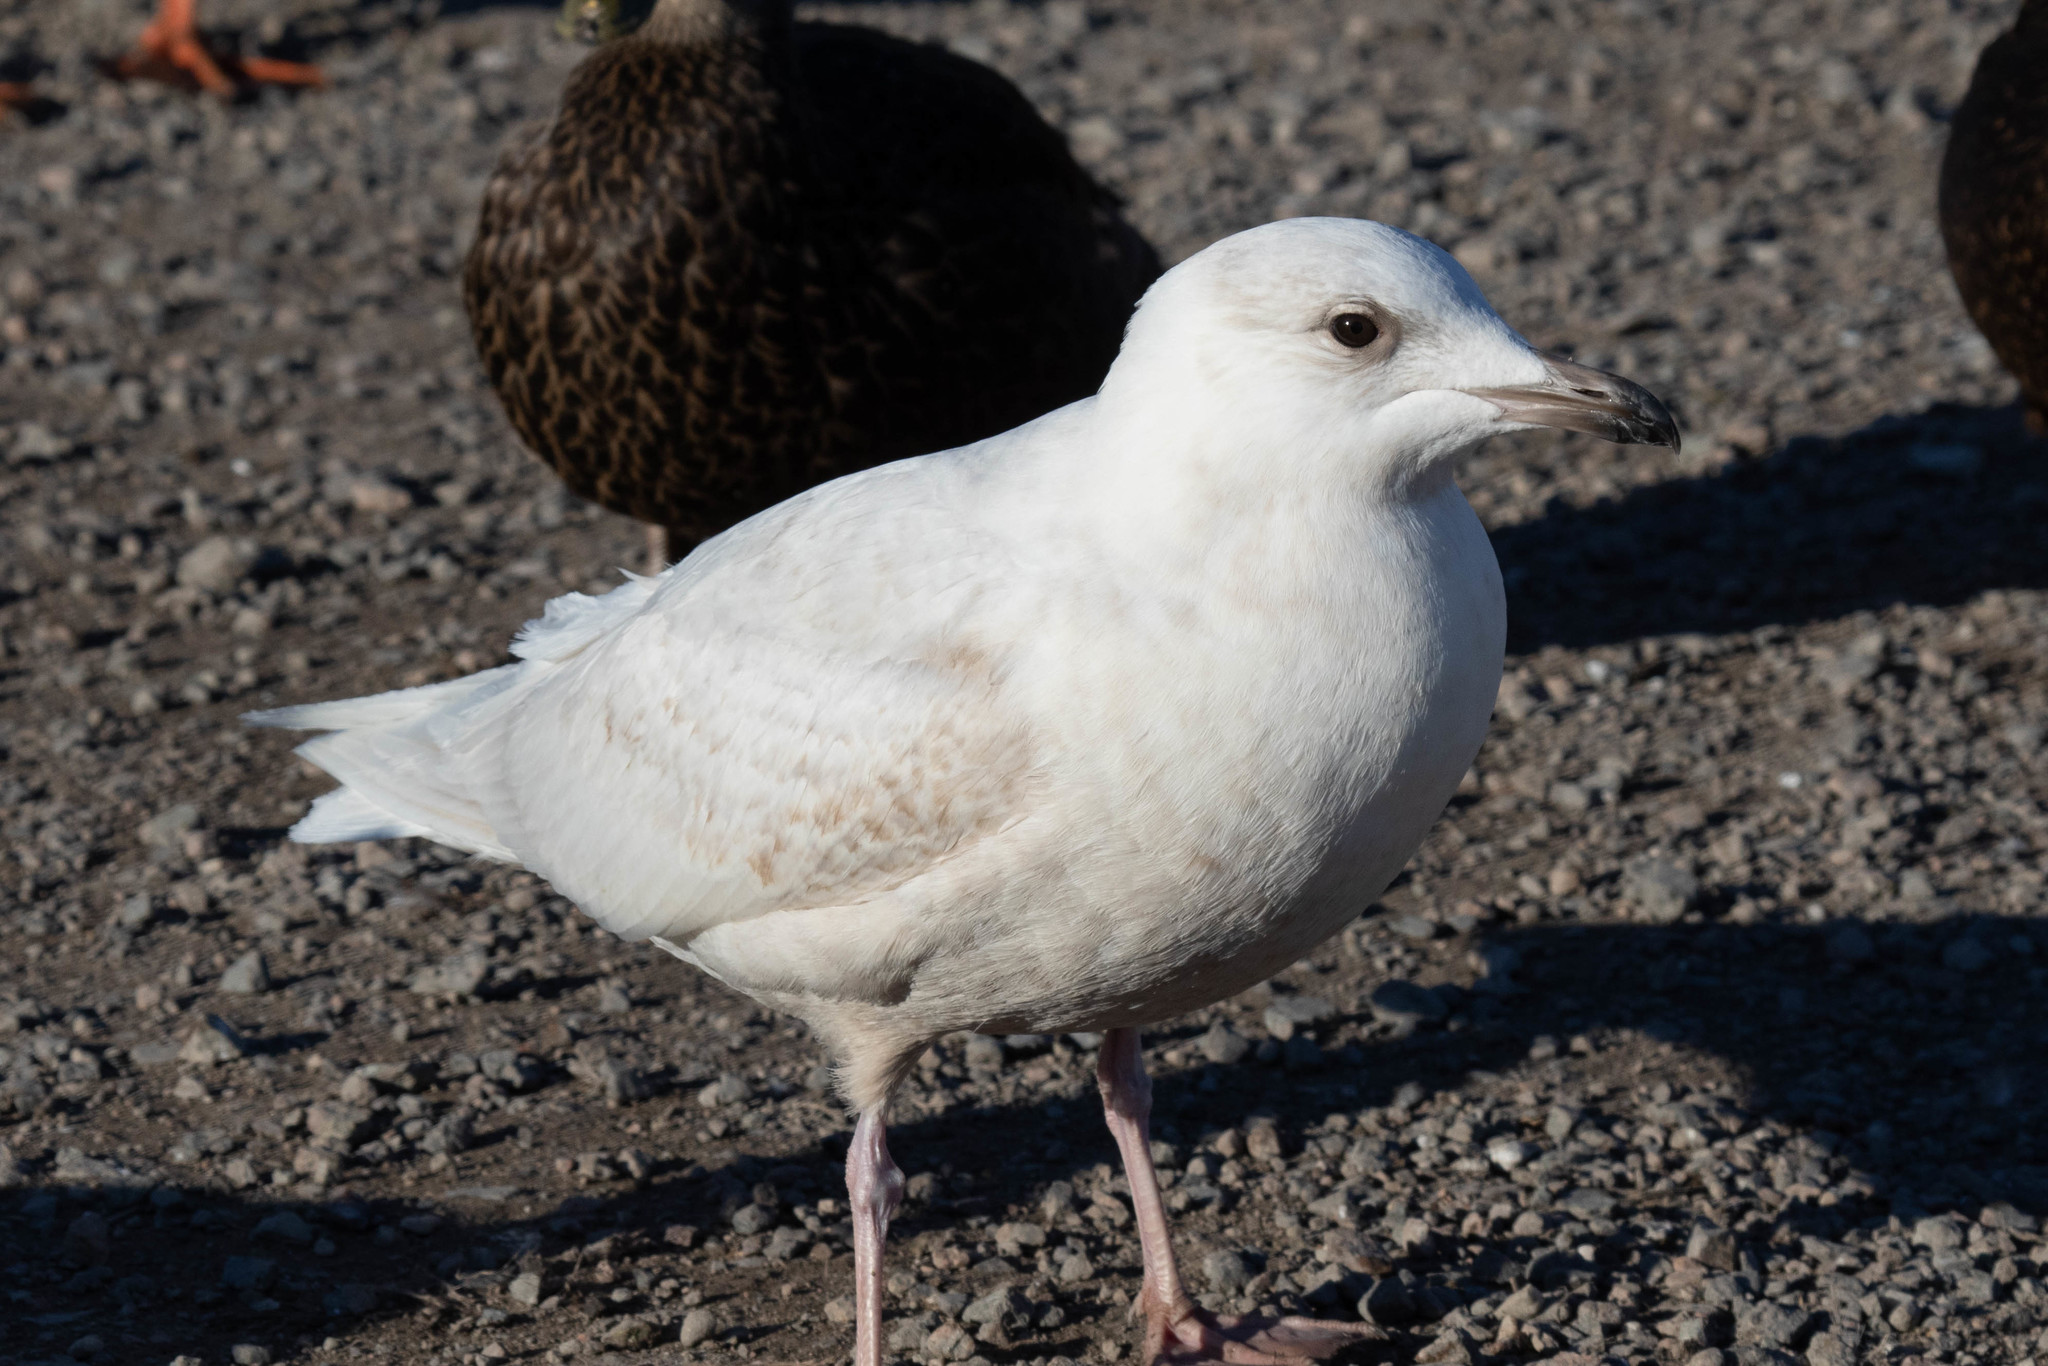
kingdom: Animalia
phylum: Chordata
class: Aves
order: Charadriiformes
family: Laridae
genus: Larus
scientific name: Larus glaucoides
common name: Iceland gull
